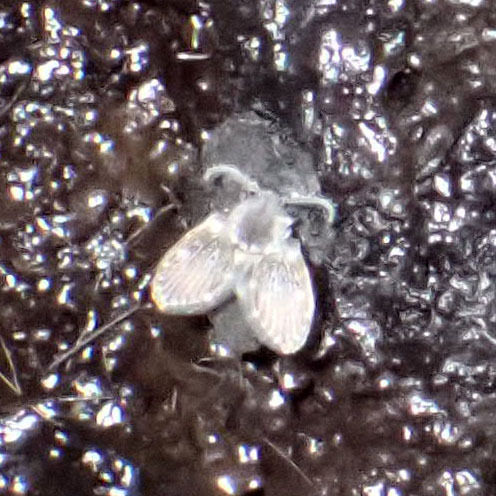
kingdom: Animalia
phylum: Arthropoda
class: Insecta
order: Diptera
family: Psychodidae
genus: Clogmia
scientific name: Clogmia albipunctatus
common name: White-spotted moth fly
